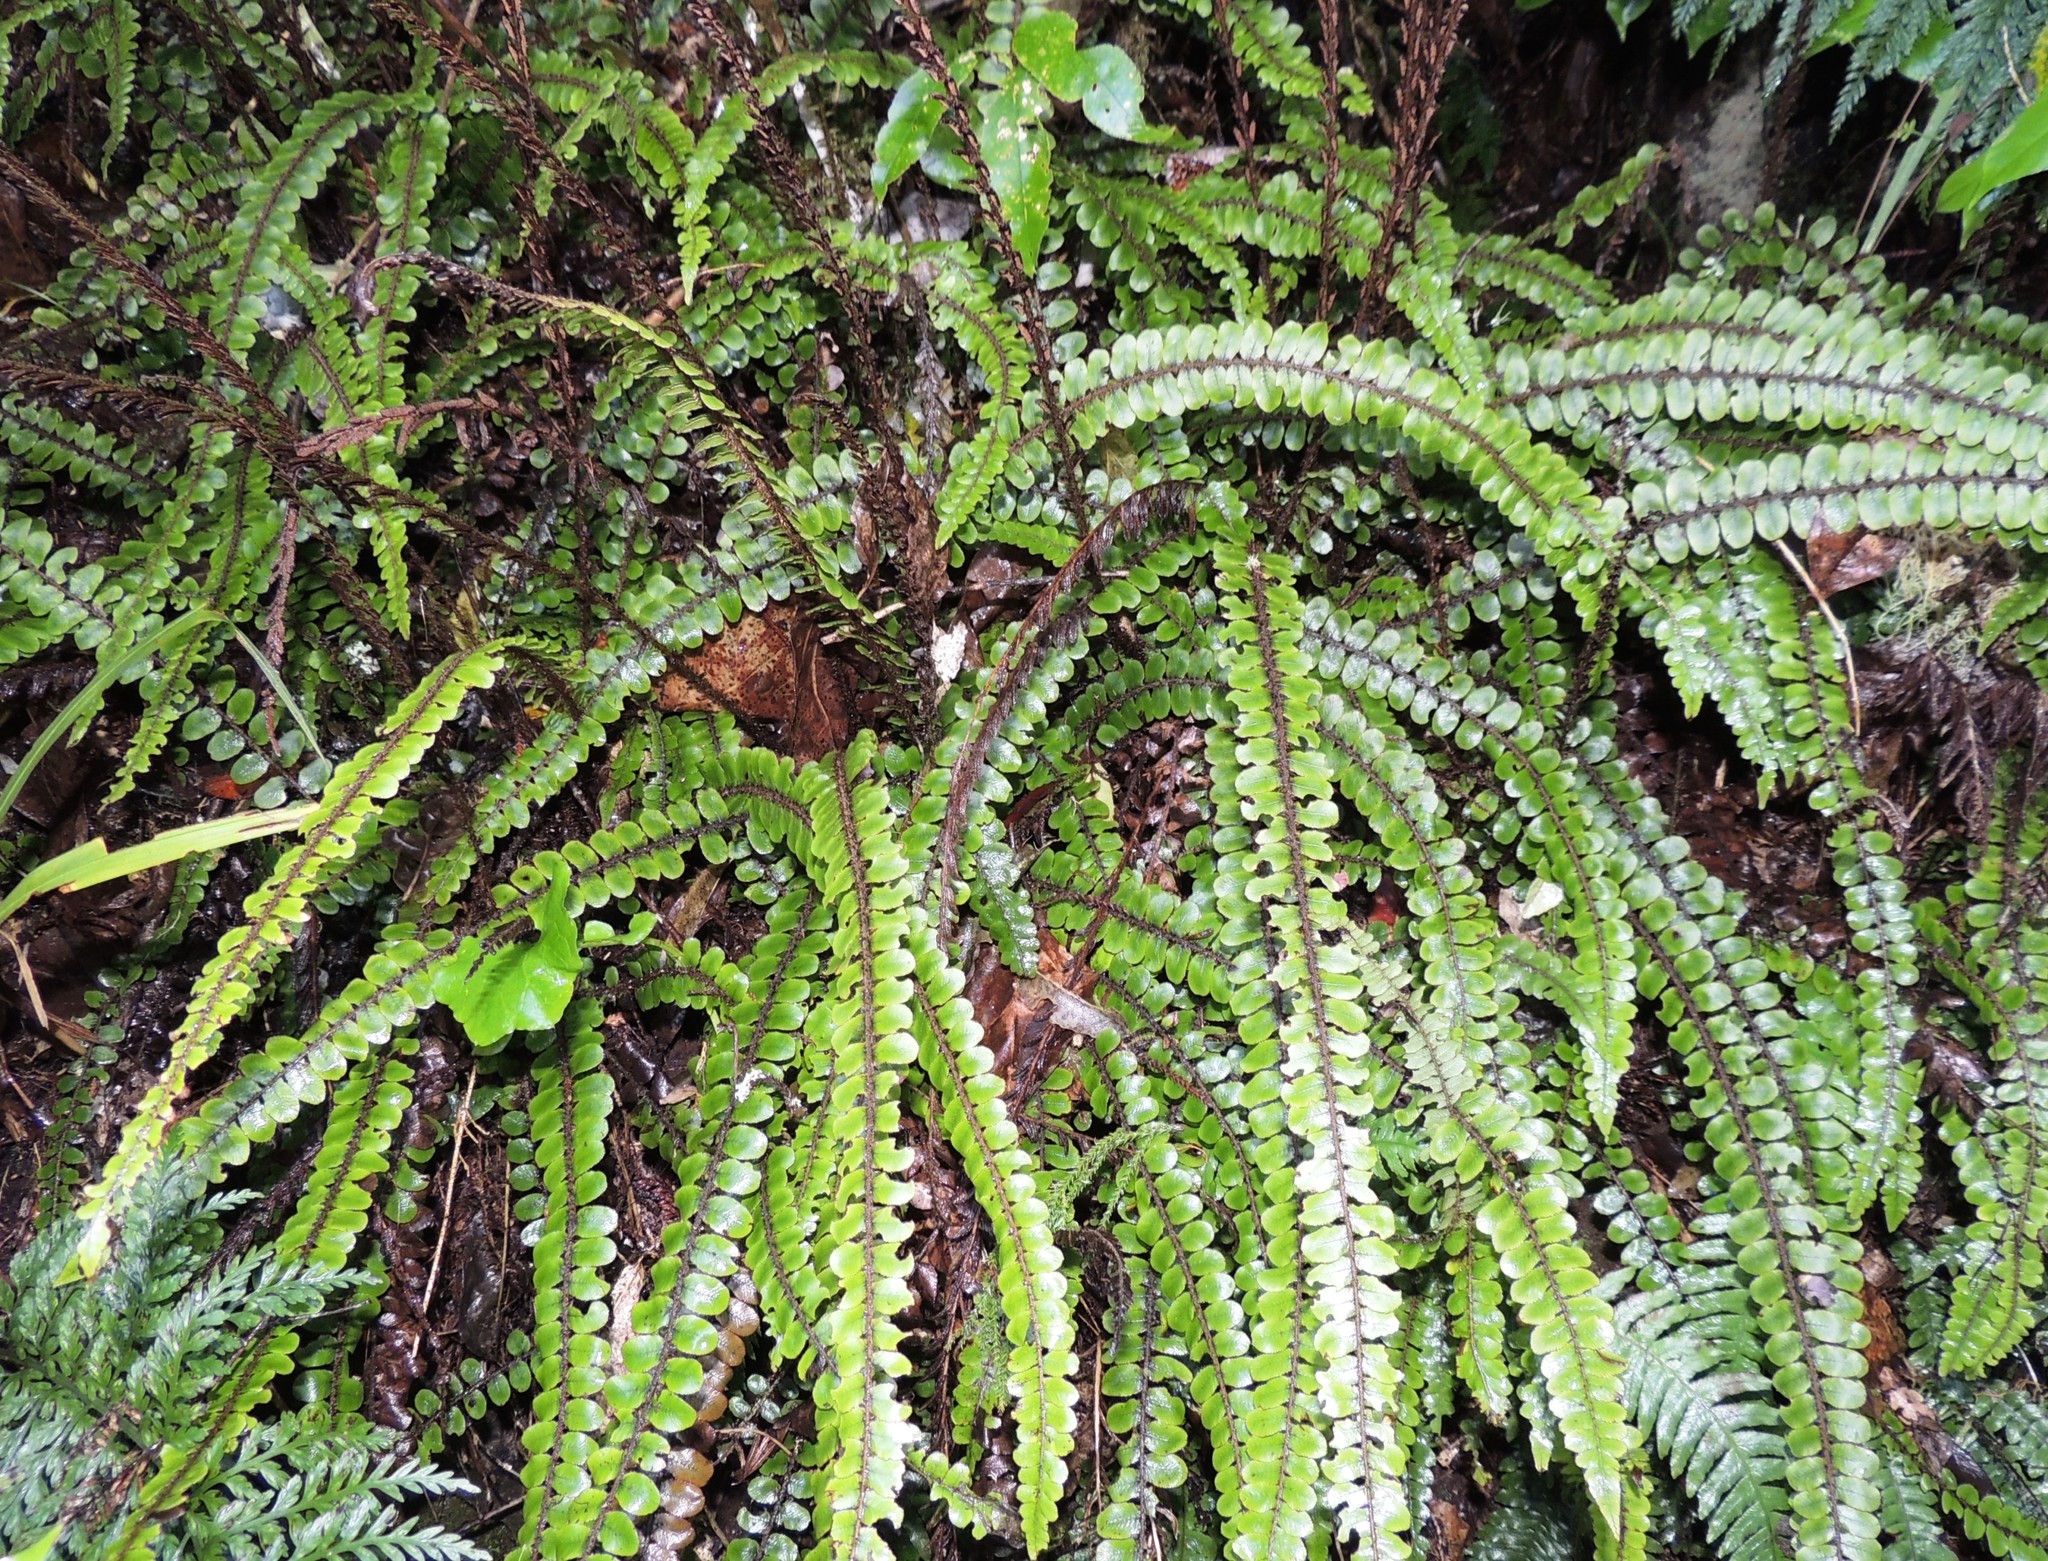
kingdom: Plantae
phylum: Tracheophyta
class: Polypodiopsida
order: Polypodiales
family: Blechnaceae
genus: Cranfillia
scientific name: Cranfillia fluviatilis
